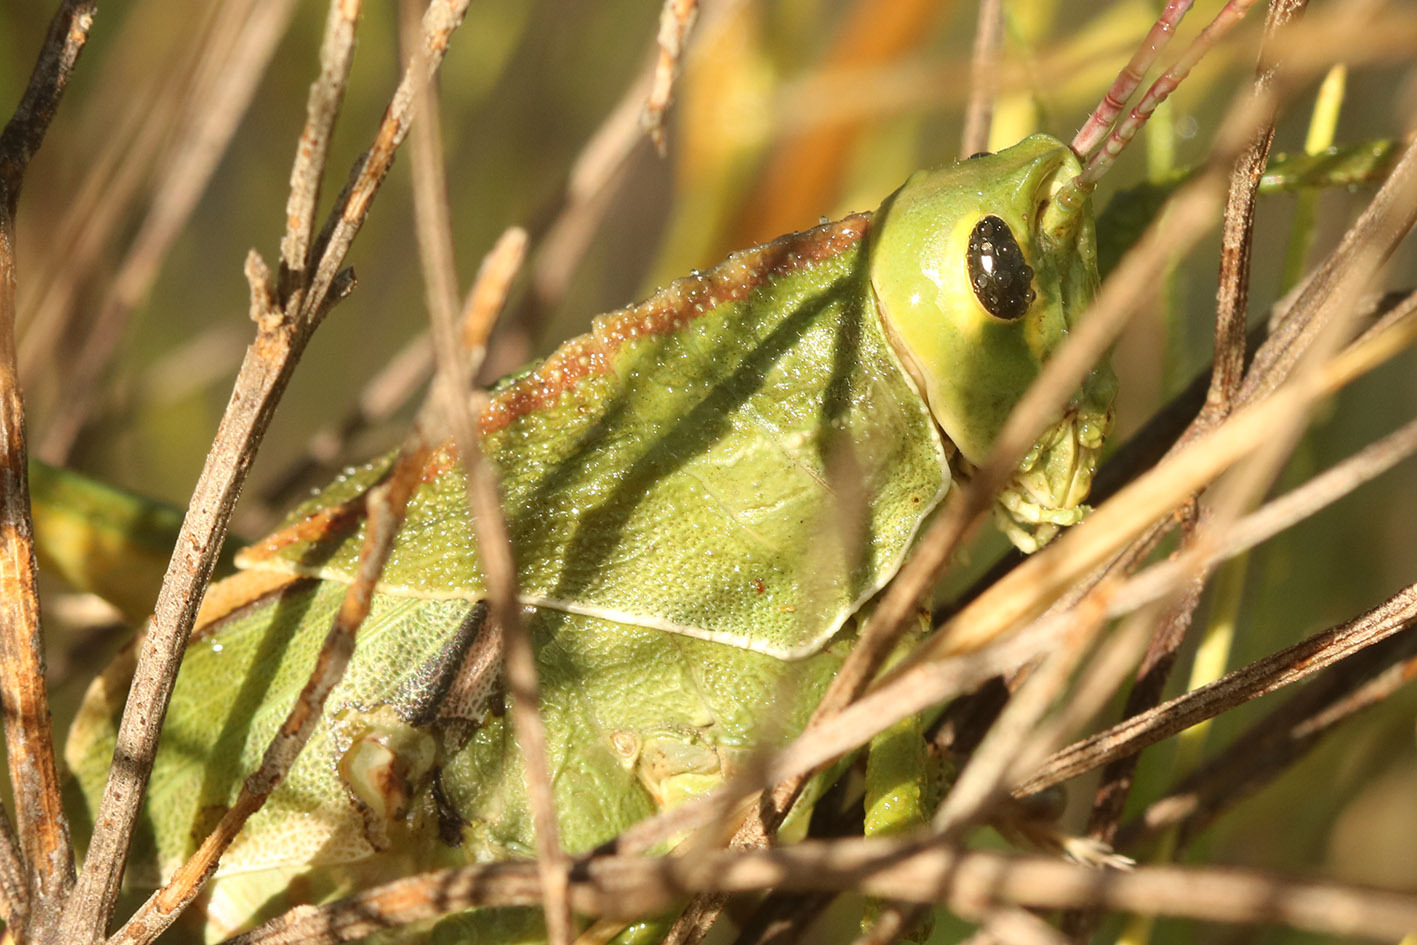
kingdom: Animalia
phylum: Arthropoda
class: Insecta
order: Orthoptera
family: Romaleidae
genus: Staleochlora
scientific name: Staleochlora viridicata
